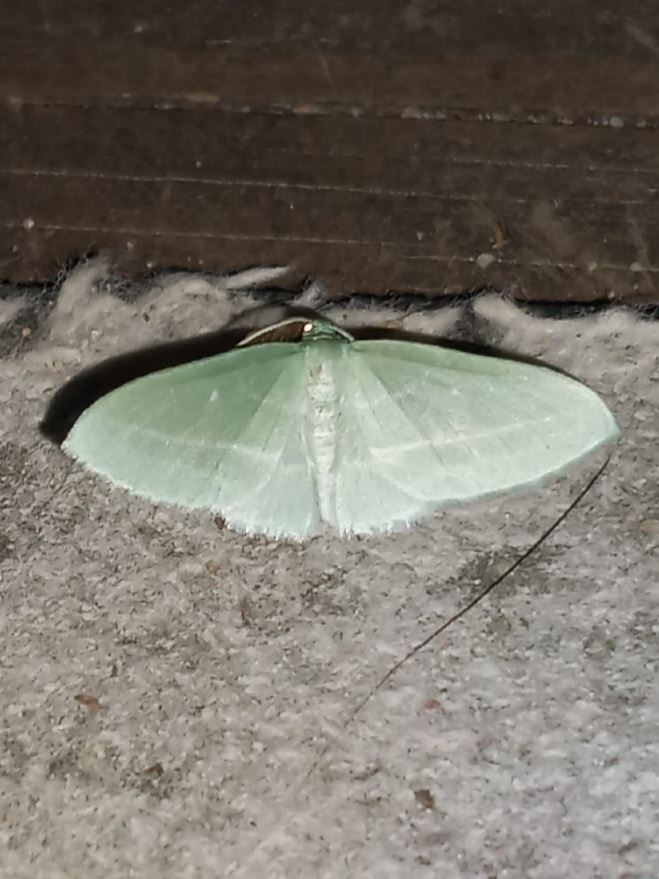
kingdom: Animalia
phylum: Arthropoda
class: Insecta
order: Lepidoptera
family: Geometridae
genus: Dyspteris
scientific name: Dyspteris abortivaria
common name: Bad-wing
